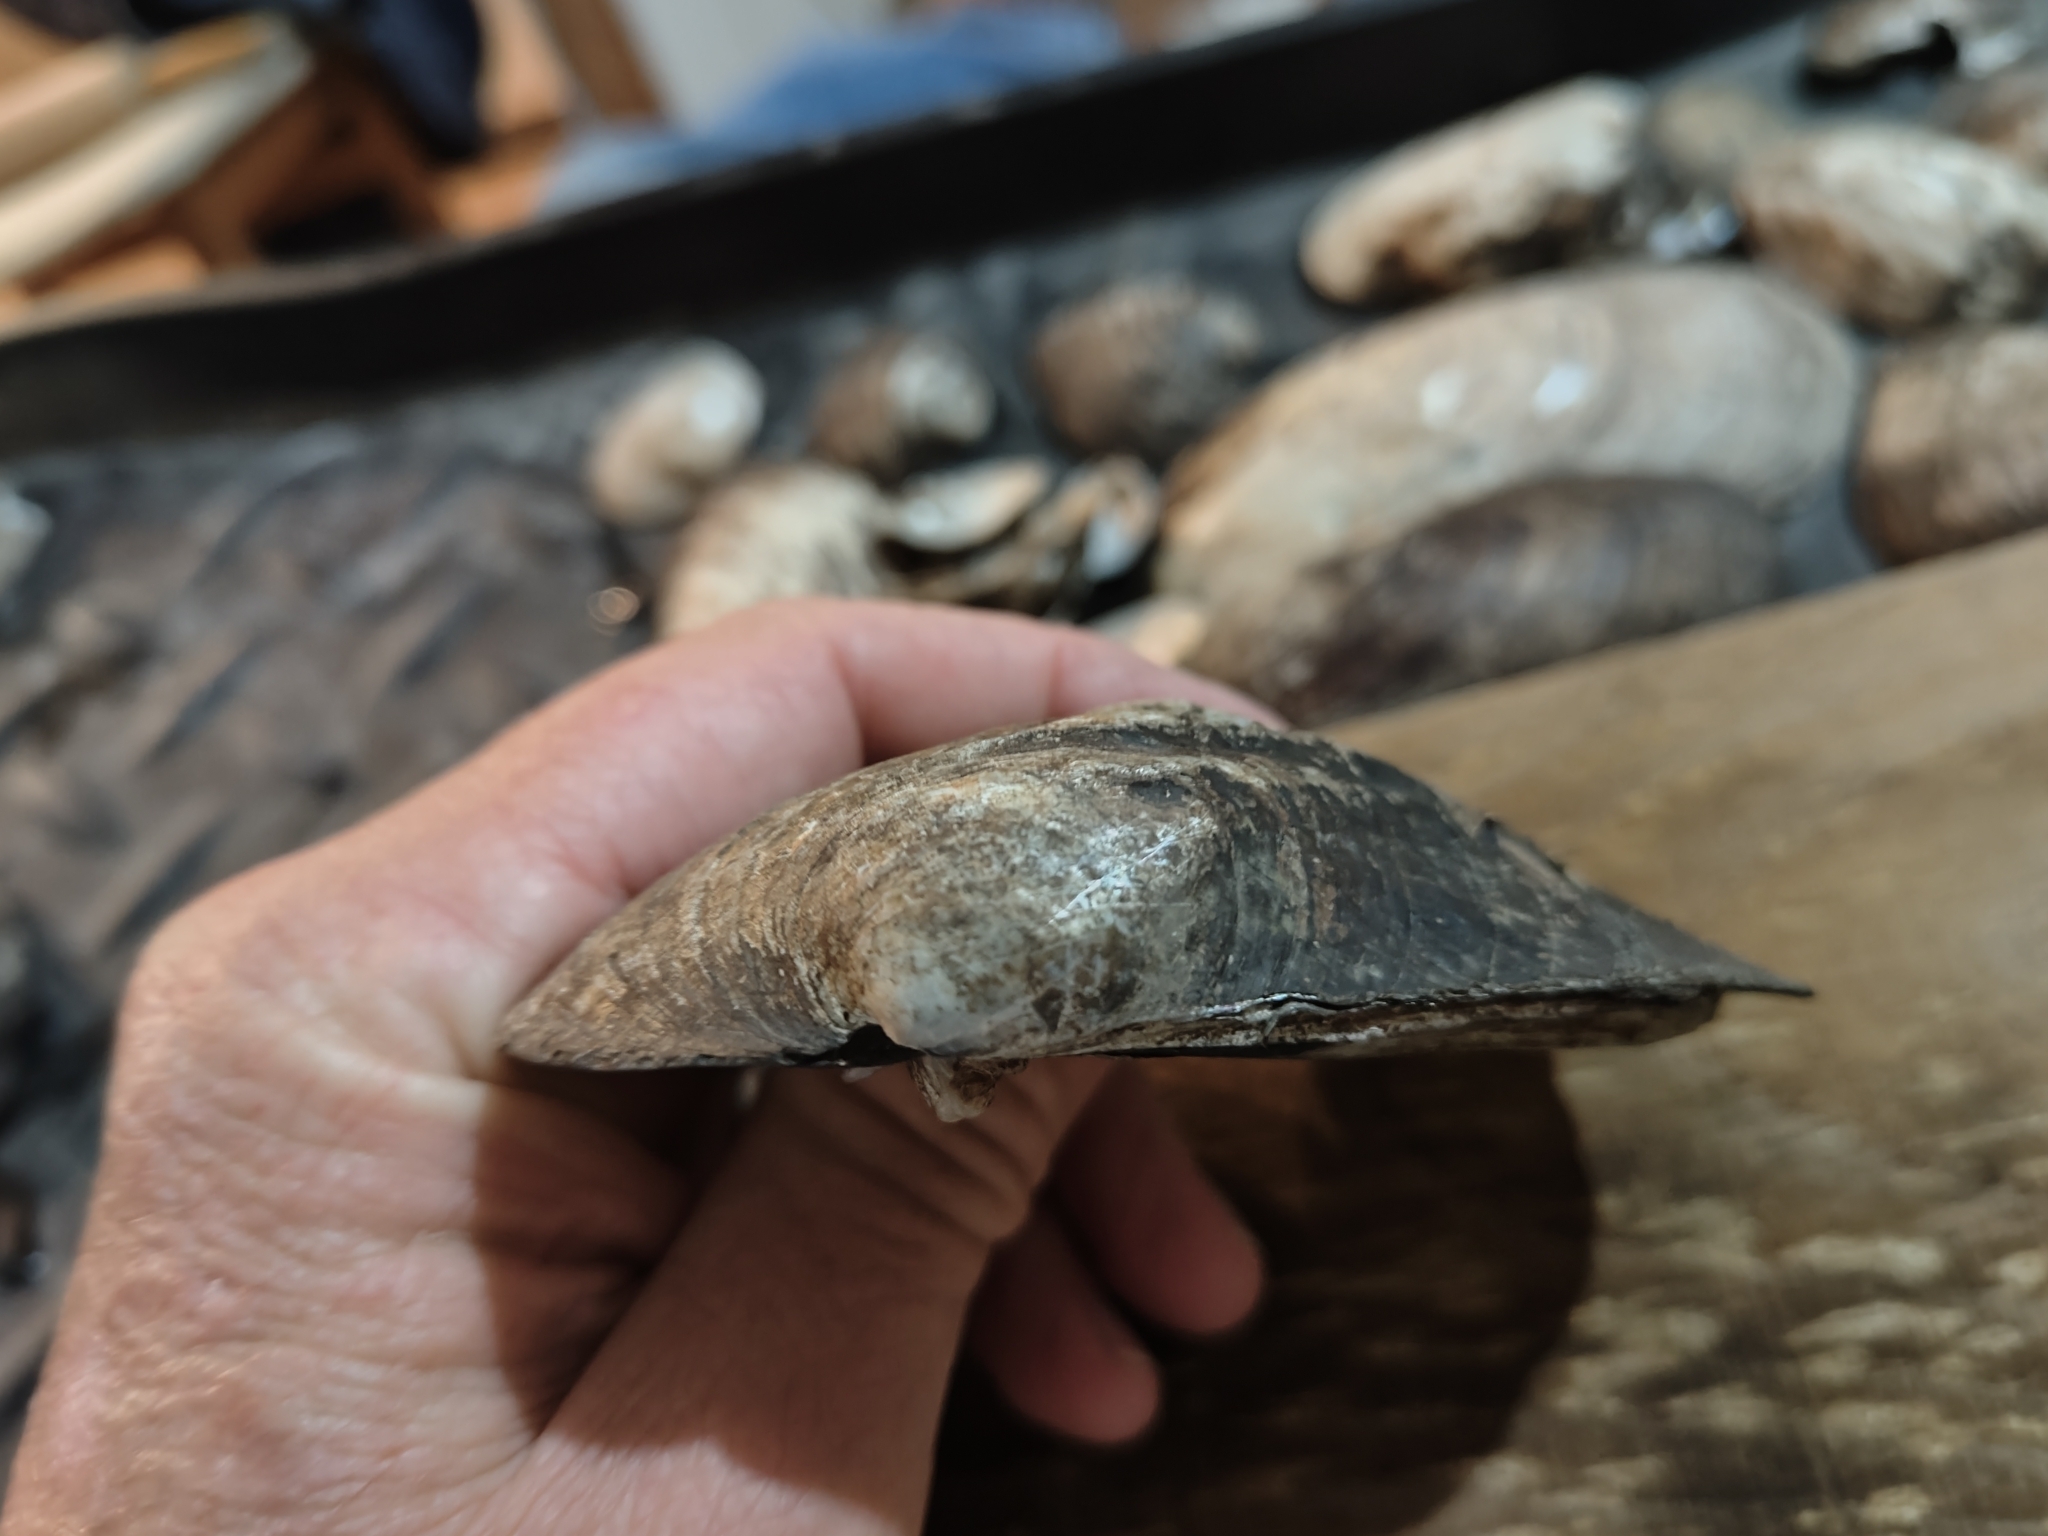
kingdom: Animalia
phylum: Mollusca
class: Bivalvia
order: Unionida
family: Unionidae
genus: Amblema
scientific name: Amblema plicata
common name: Threeridge
